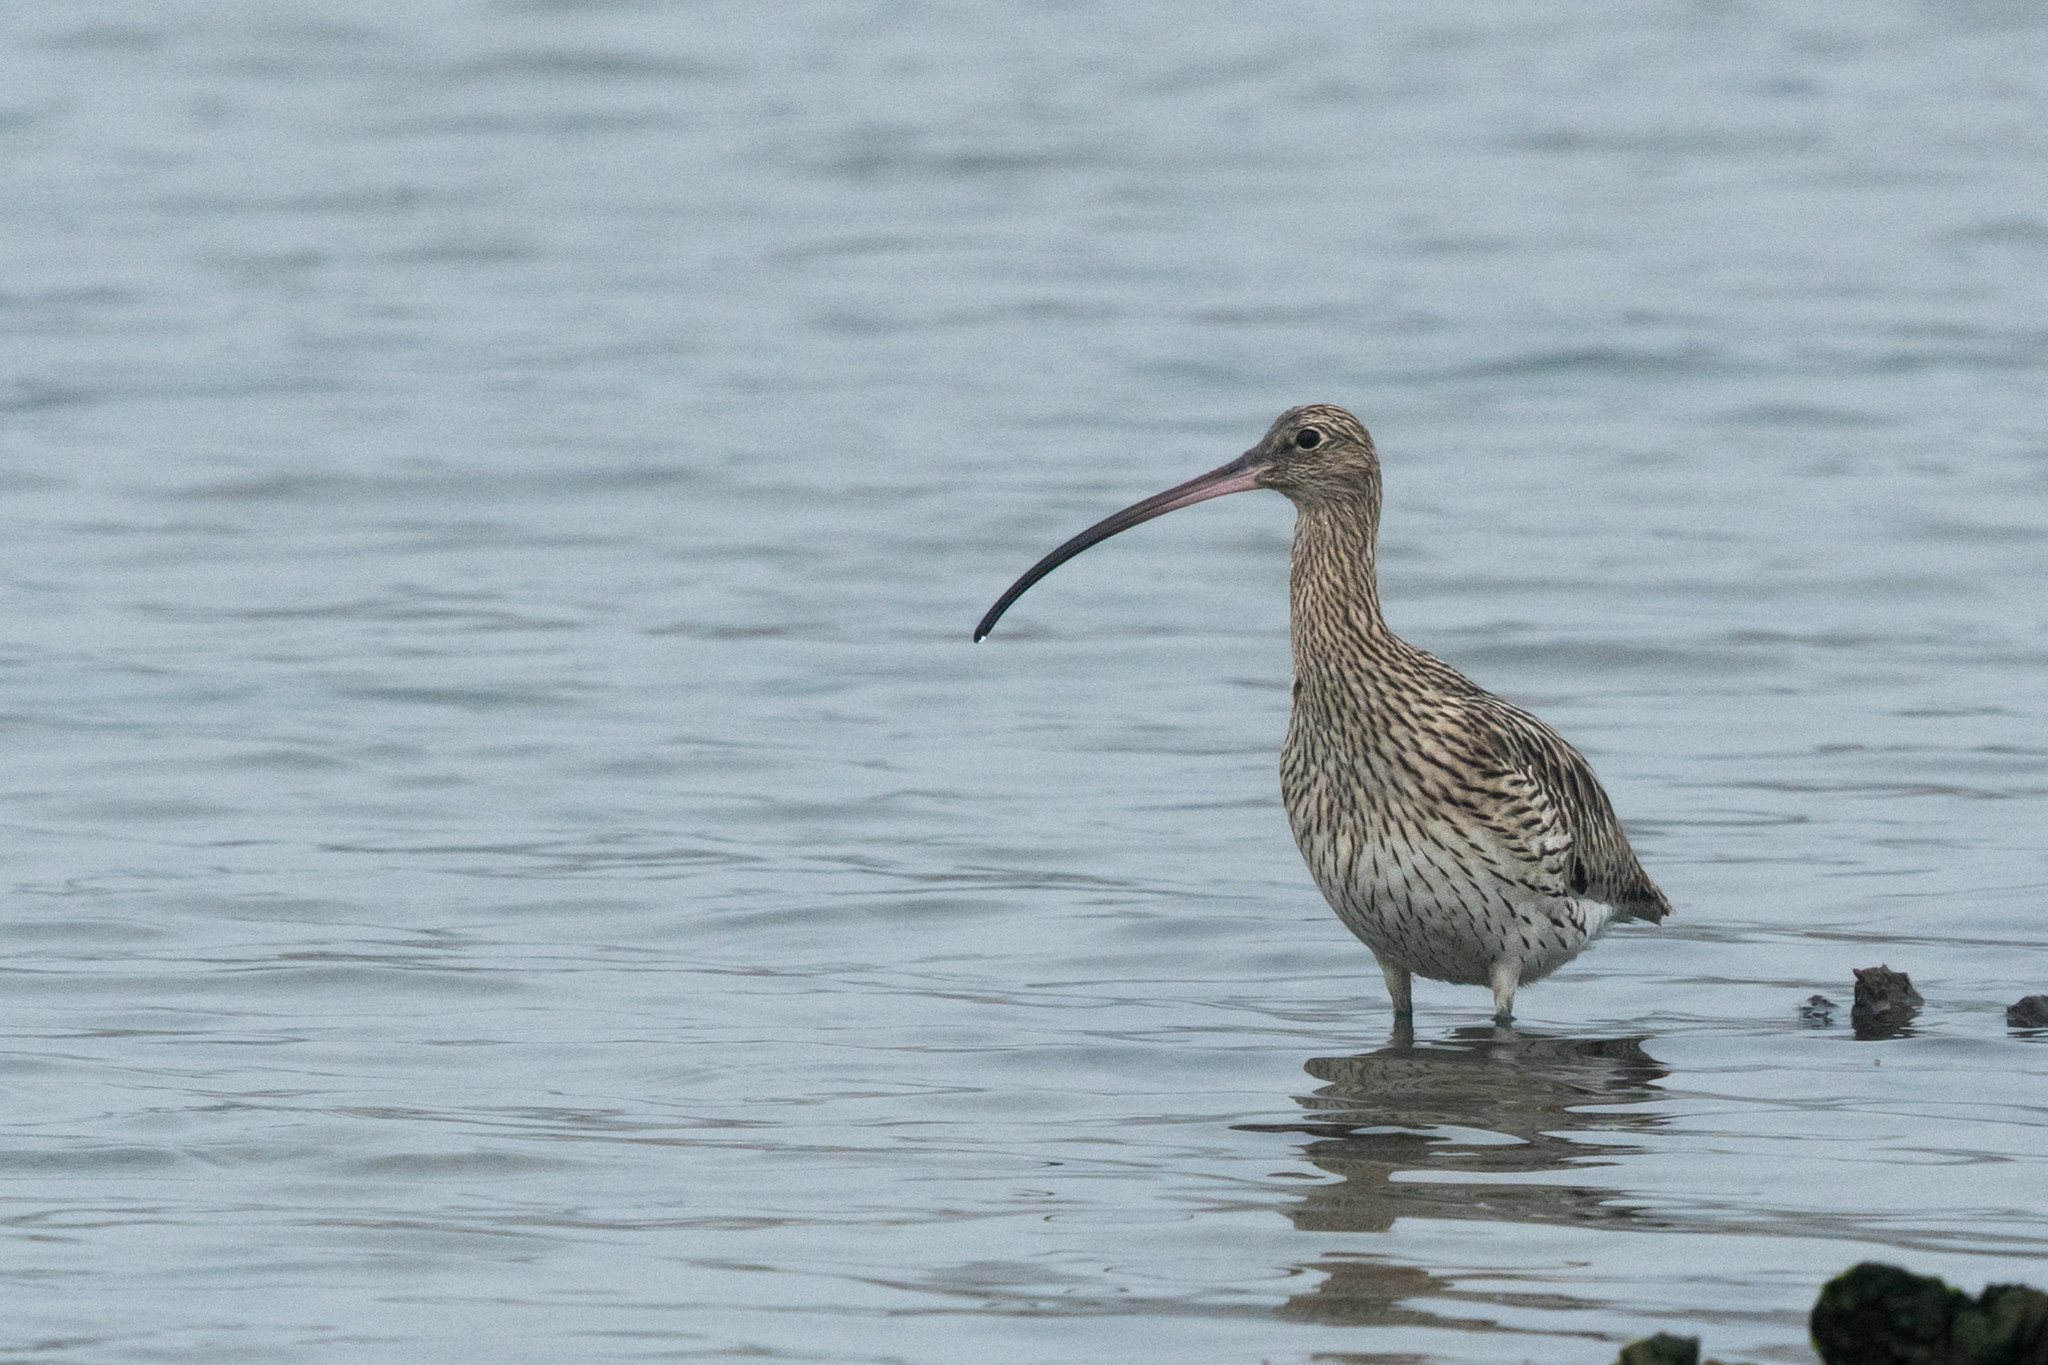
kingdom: Animalia
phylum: Chordata
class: Aves
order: Charadriiformes
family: Scolopacidae
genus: Numenius
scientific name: Numenius arquata
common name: Eurasian curlew
